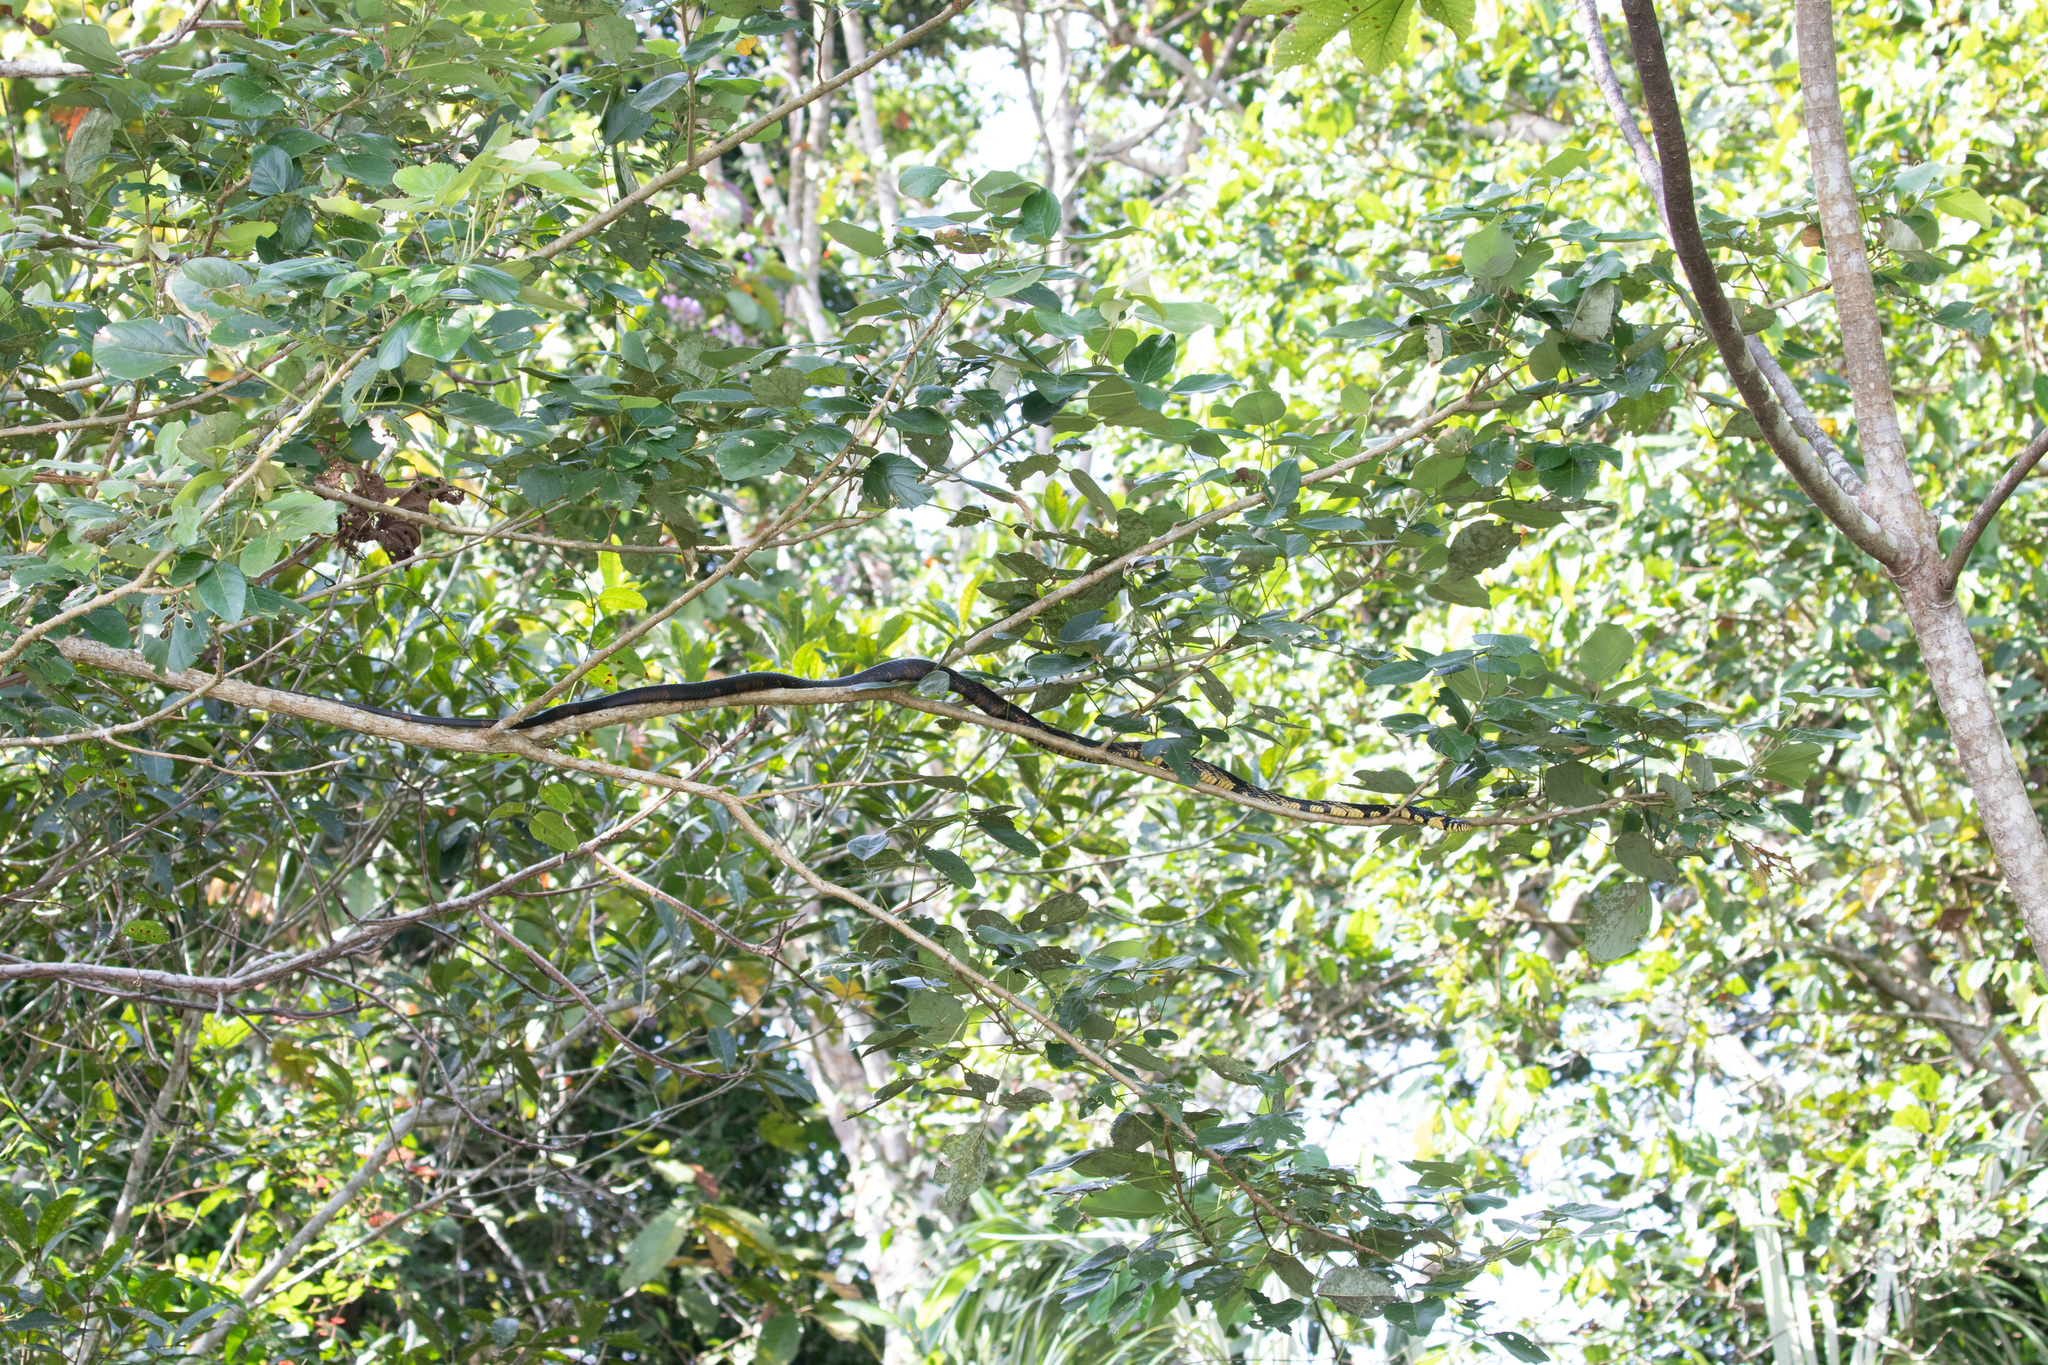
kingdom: Animalia
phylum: Chordata
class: Squamata
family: Colubridae
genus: Spilotes
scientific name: Spilotes pullatus
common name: Chicken snake
